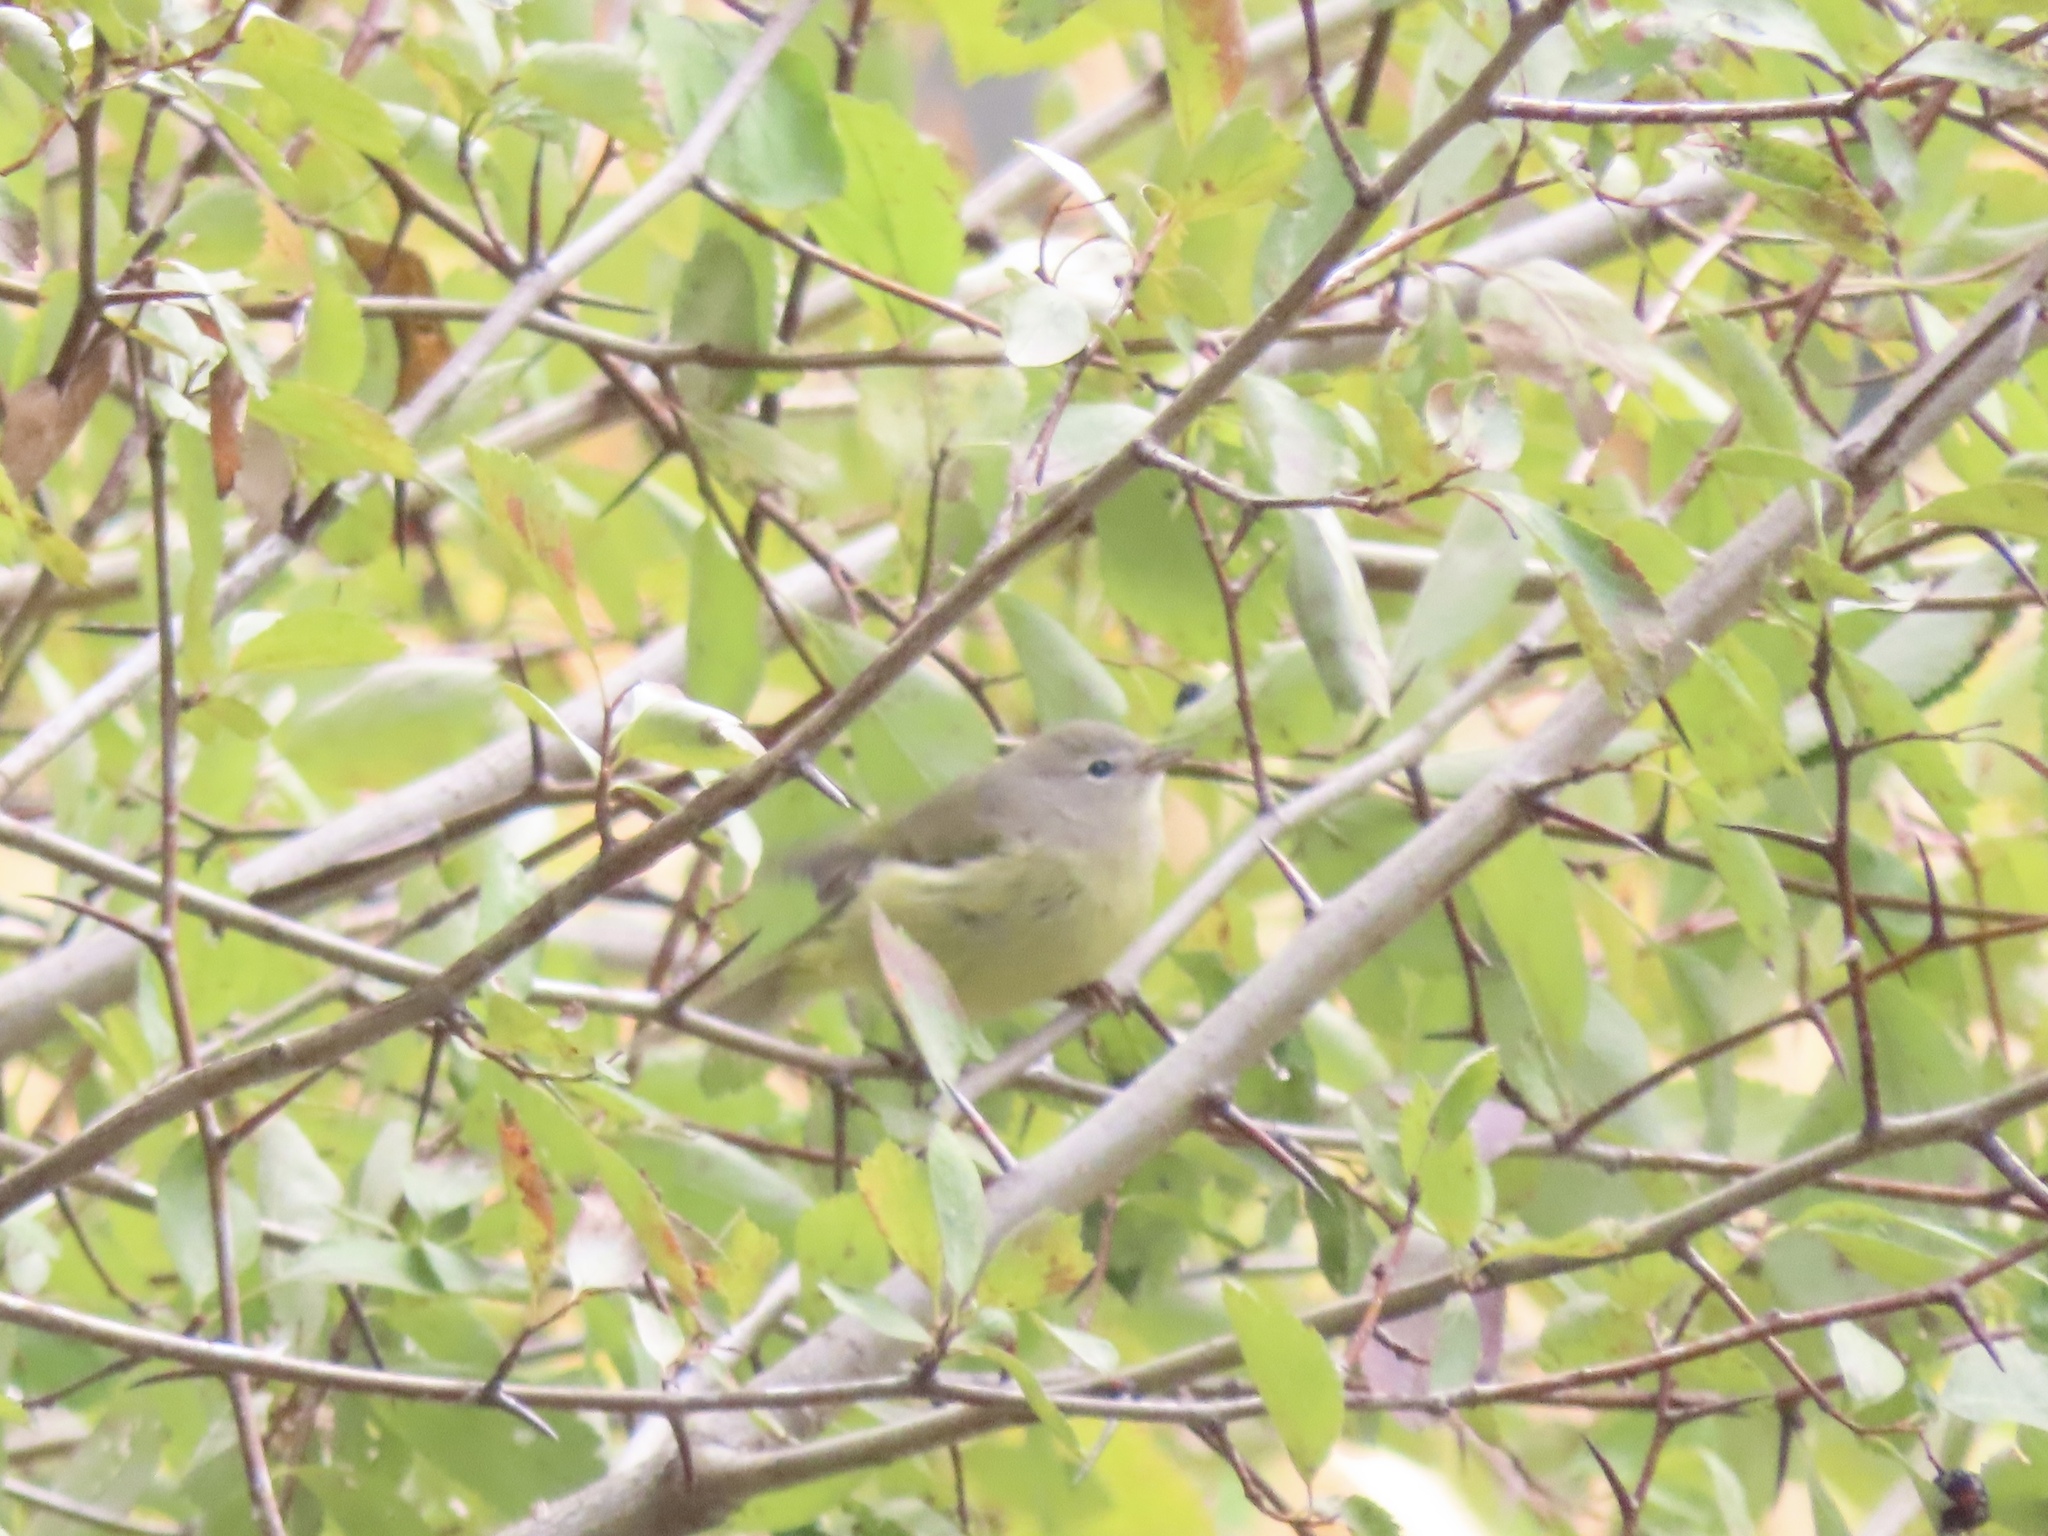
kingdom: Animalia
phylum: Chordata
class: Aves
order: Passeriformes
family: Parulidae
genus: Leiothlypis
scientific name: Leiothlypis celata
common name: Orange-crowned warbler
